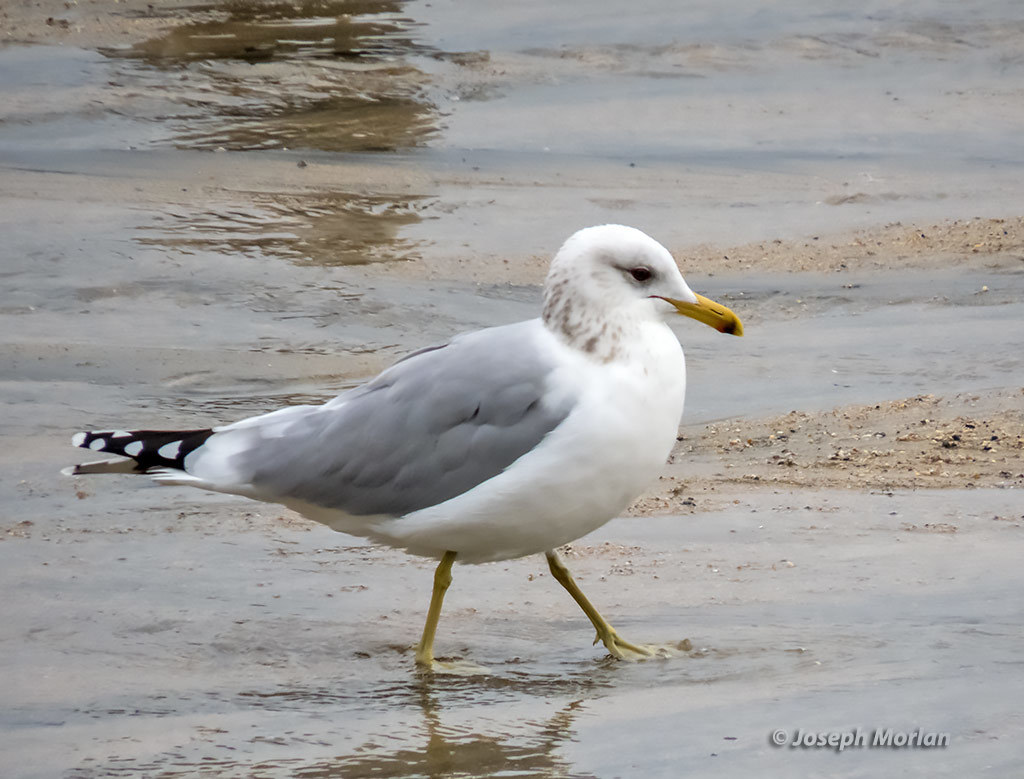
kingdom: Animalia
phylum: Chordata
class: Aves
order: Charadriiformes
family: Laridae
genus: Larus
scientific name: Larus californicus
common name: California gull
